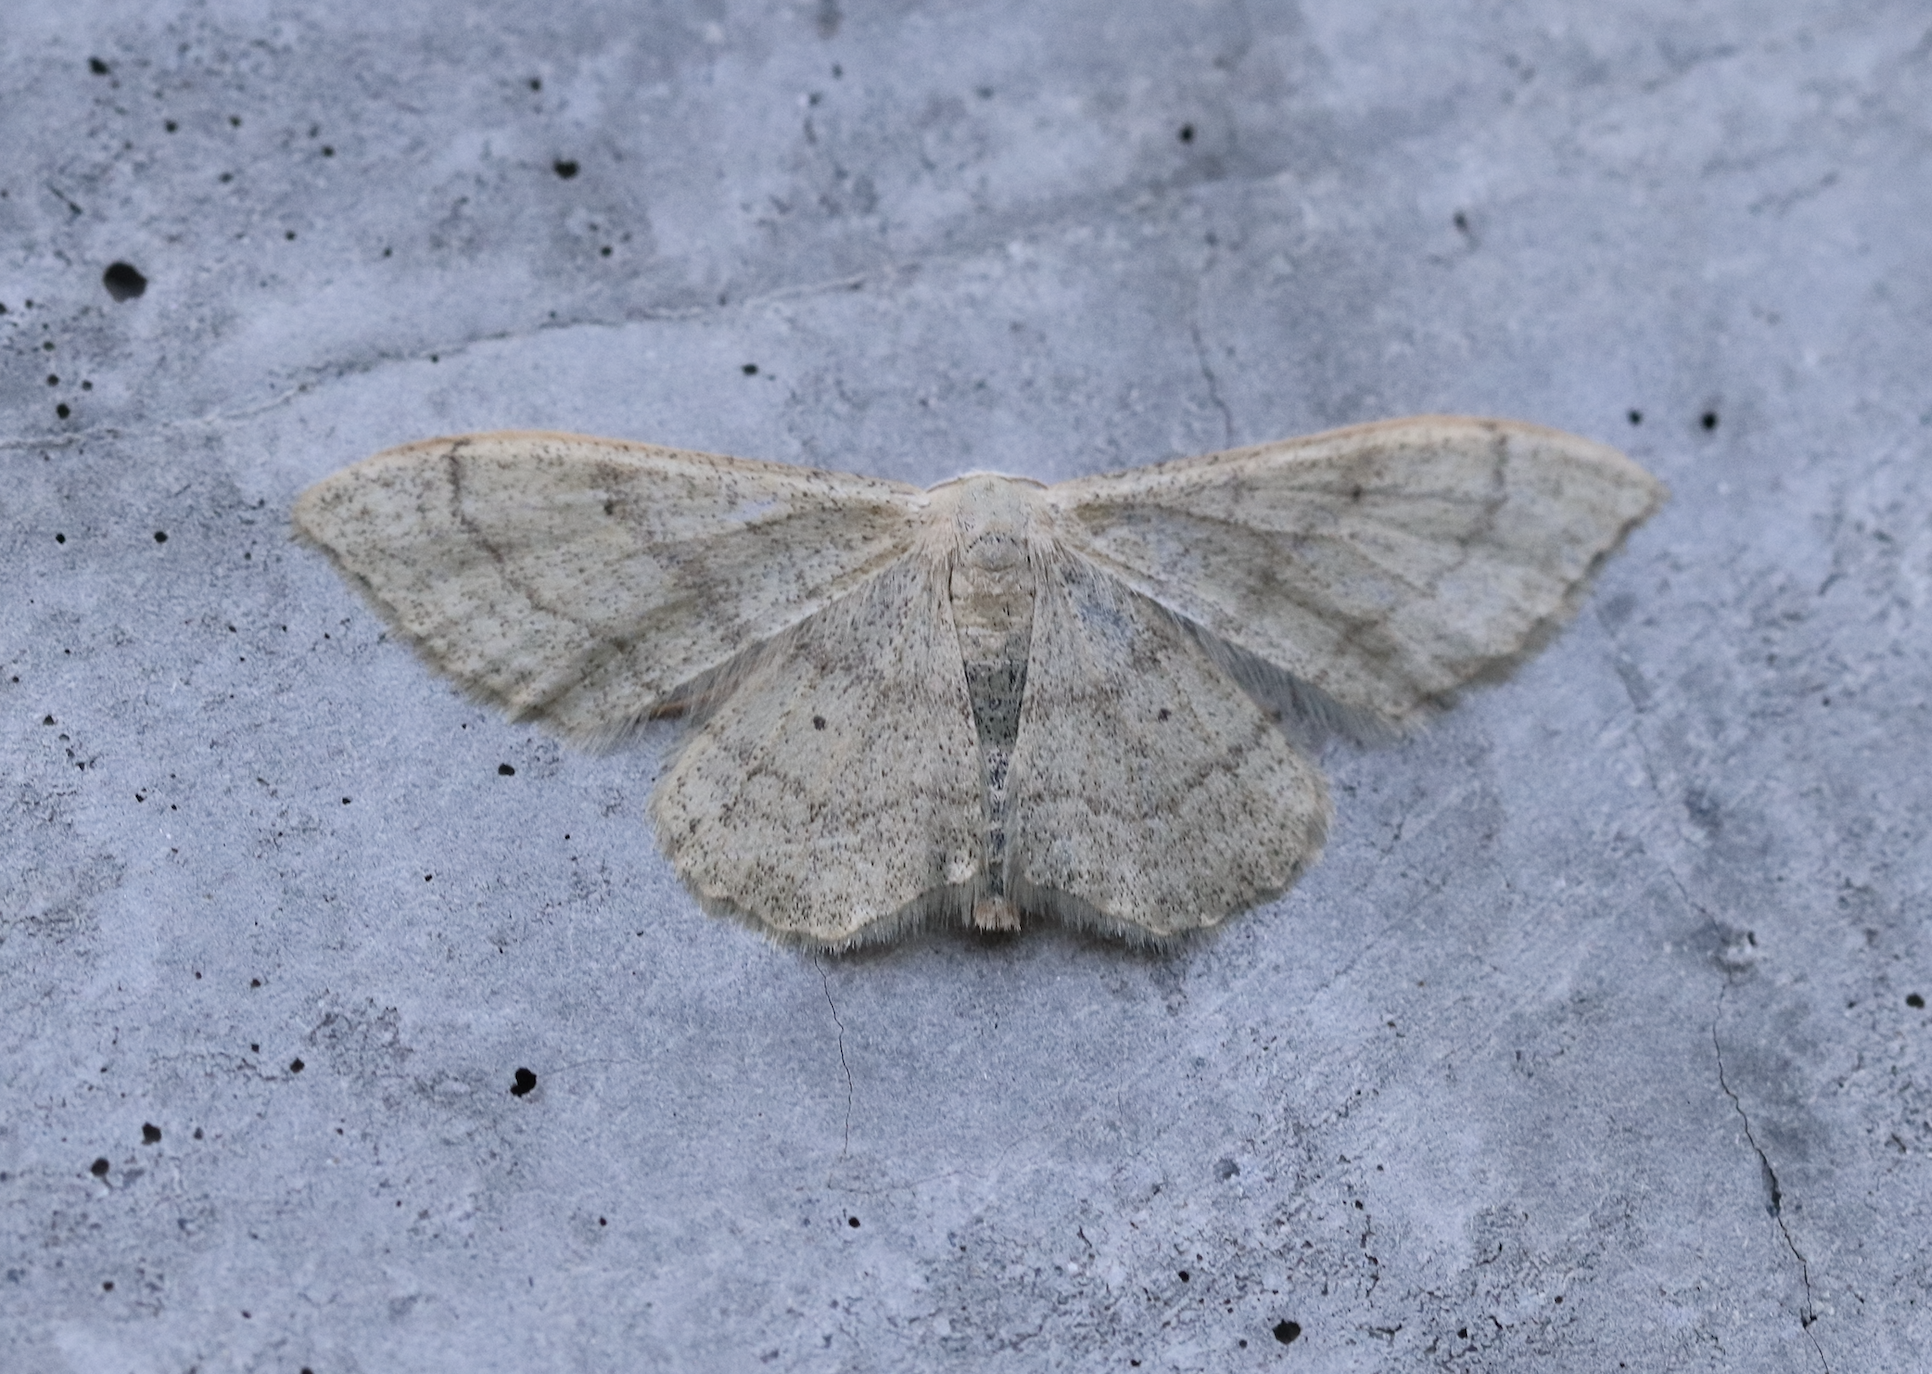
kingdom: Animalia
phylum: Arthropoda
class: Insecta
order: Lepidoptera
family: Geometridae
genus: Idaea
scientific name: Idaea straminata
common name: Plain wave
